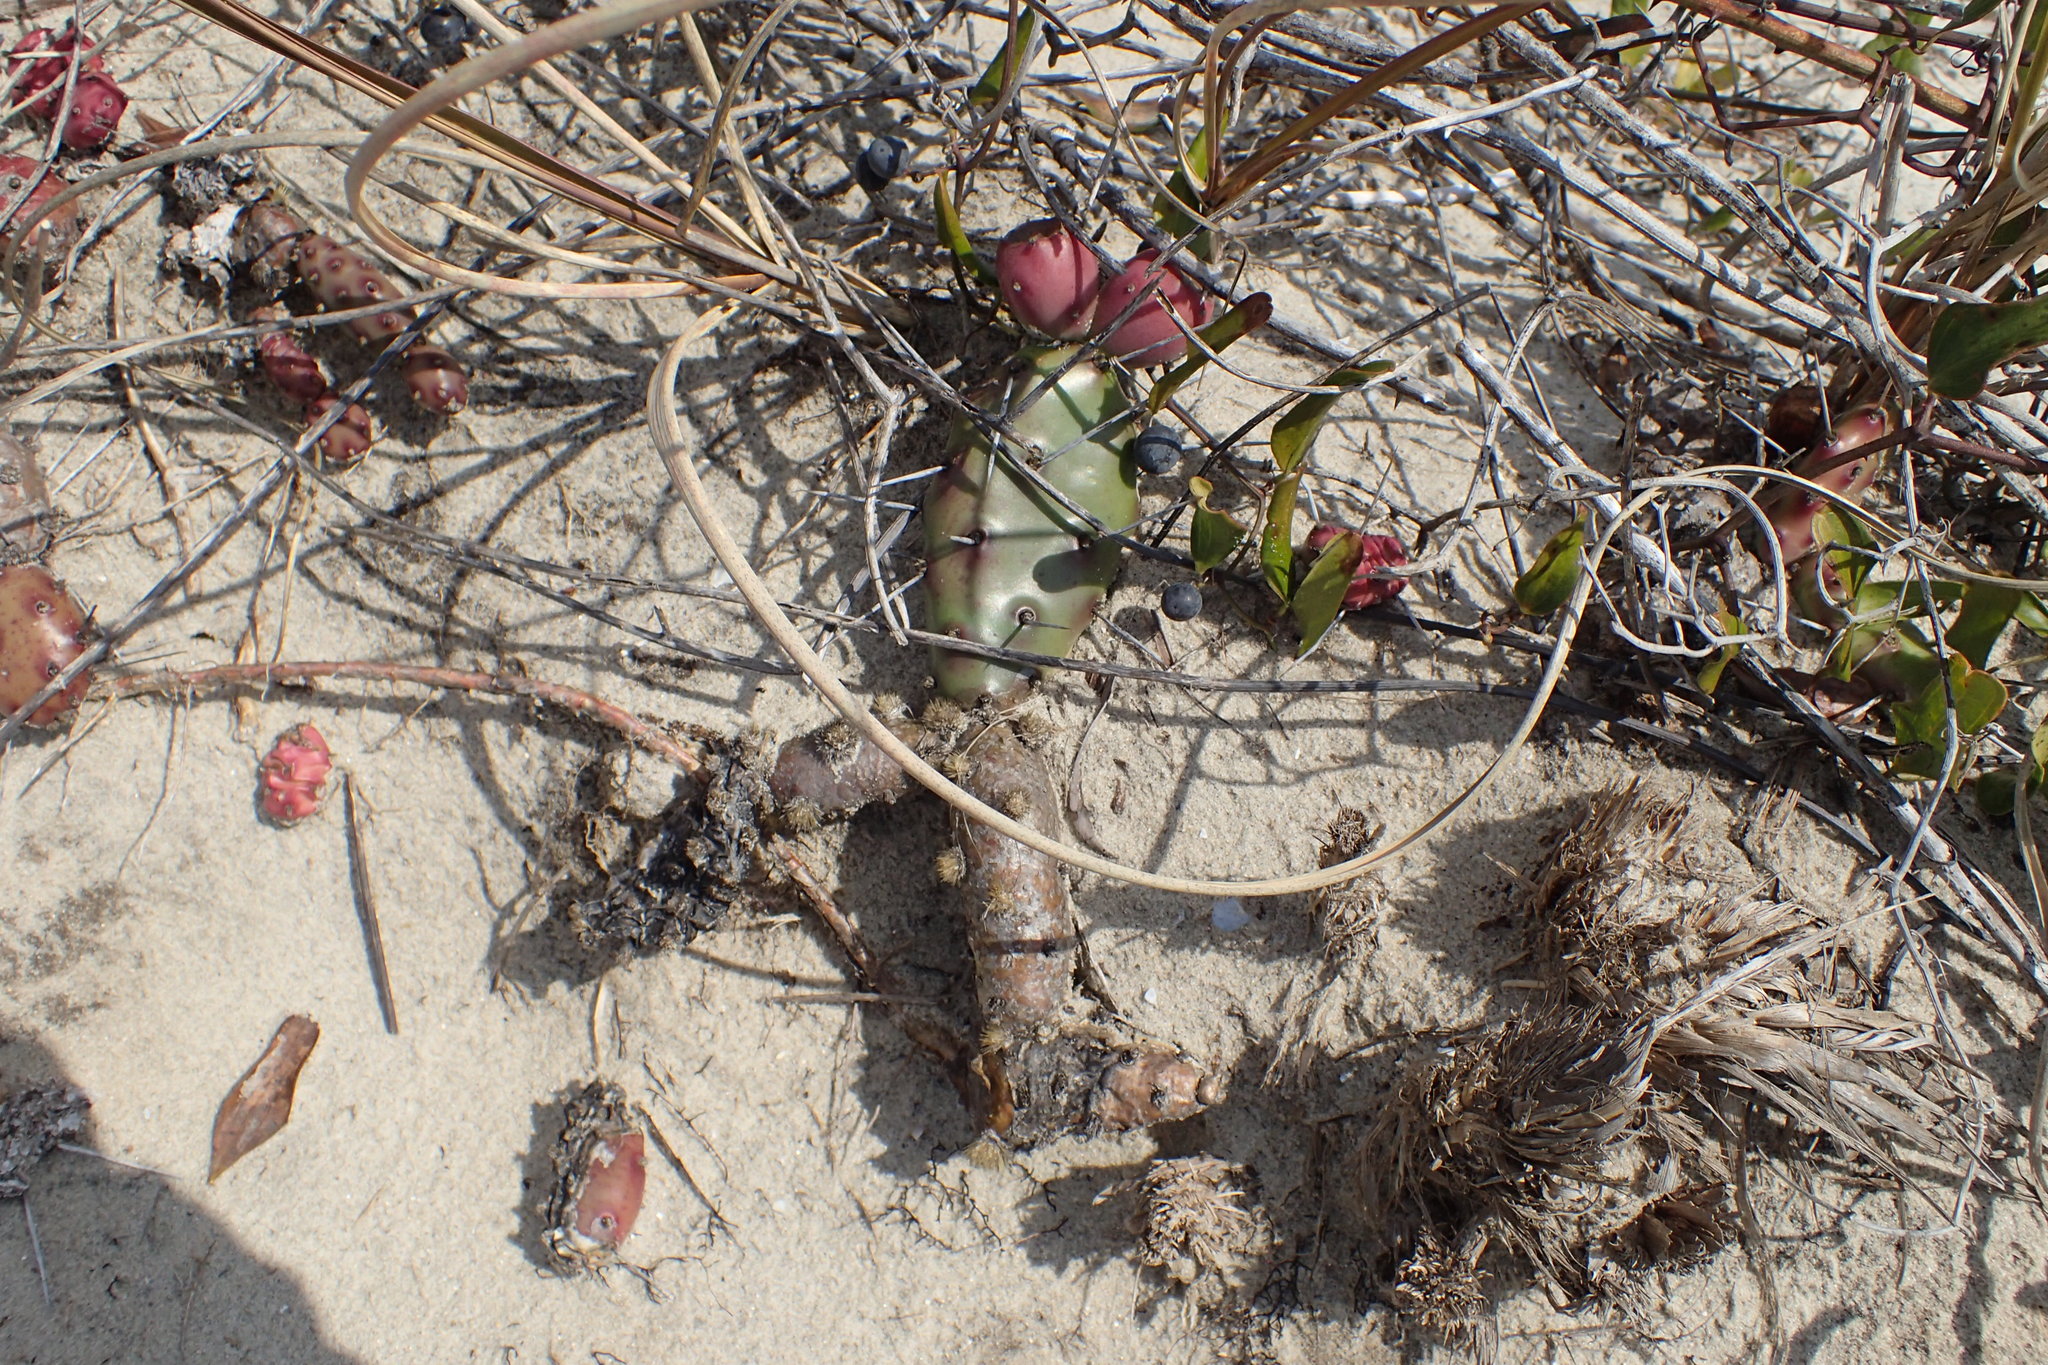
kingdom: Plantae
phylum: Tracheophyta
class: Magnoliopsida
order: Caryophyllales
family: Cactaceae
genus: Opuntia
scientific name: Opuntia drummondii
